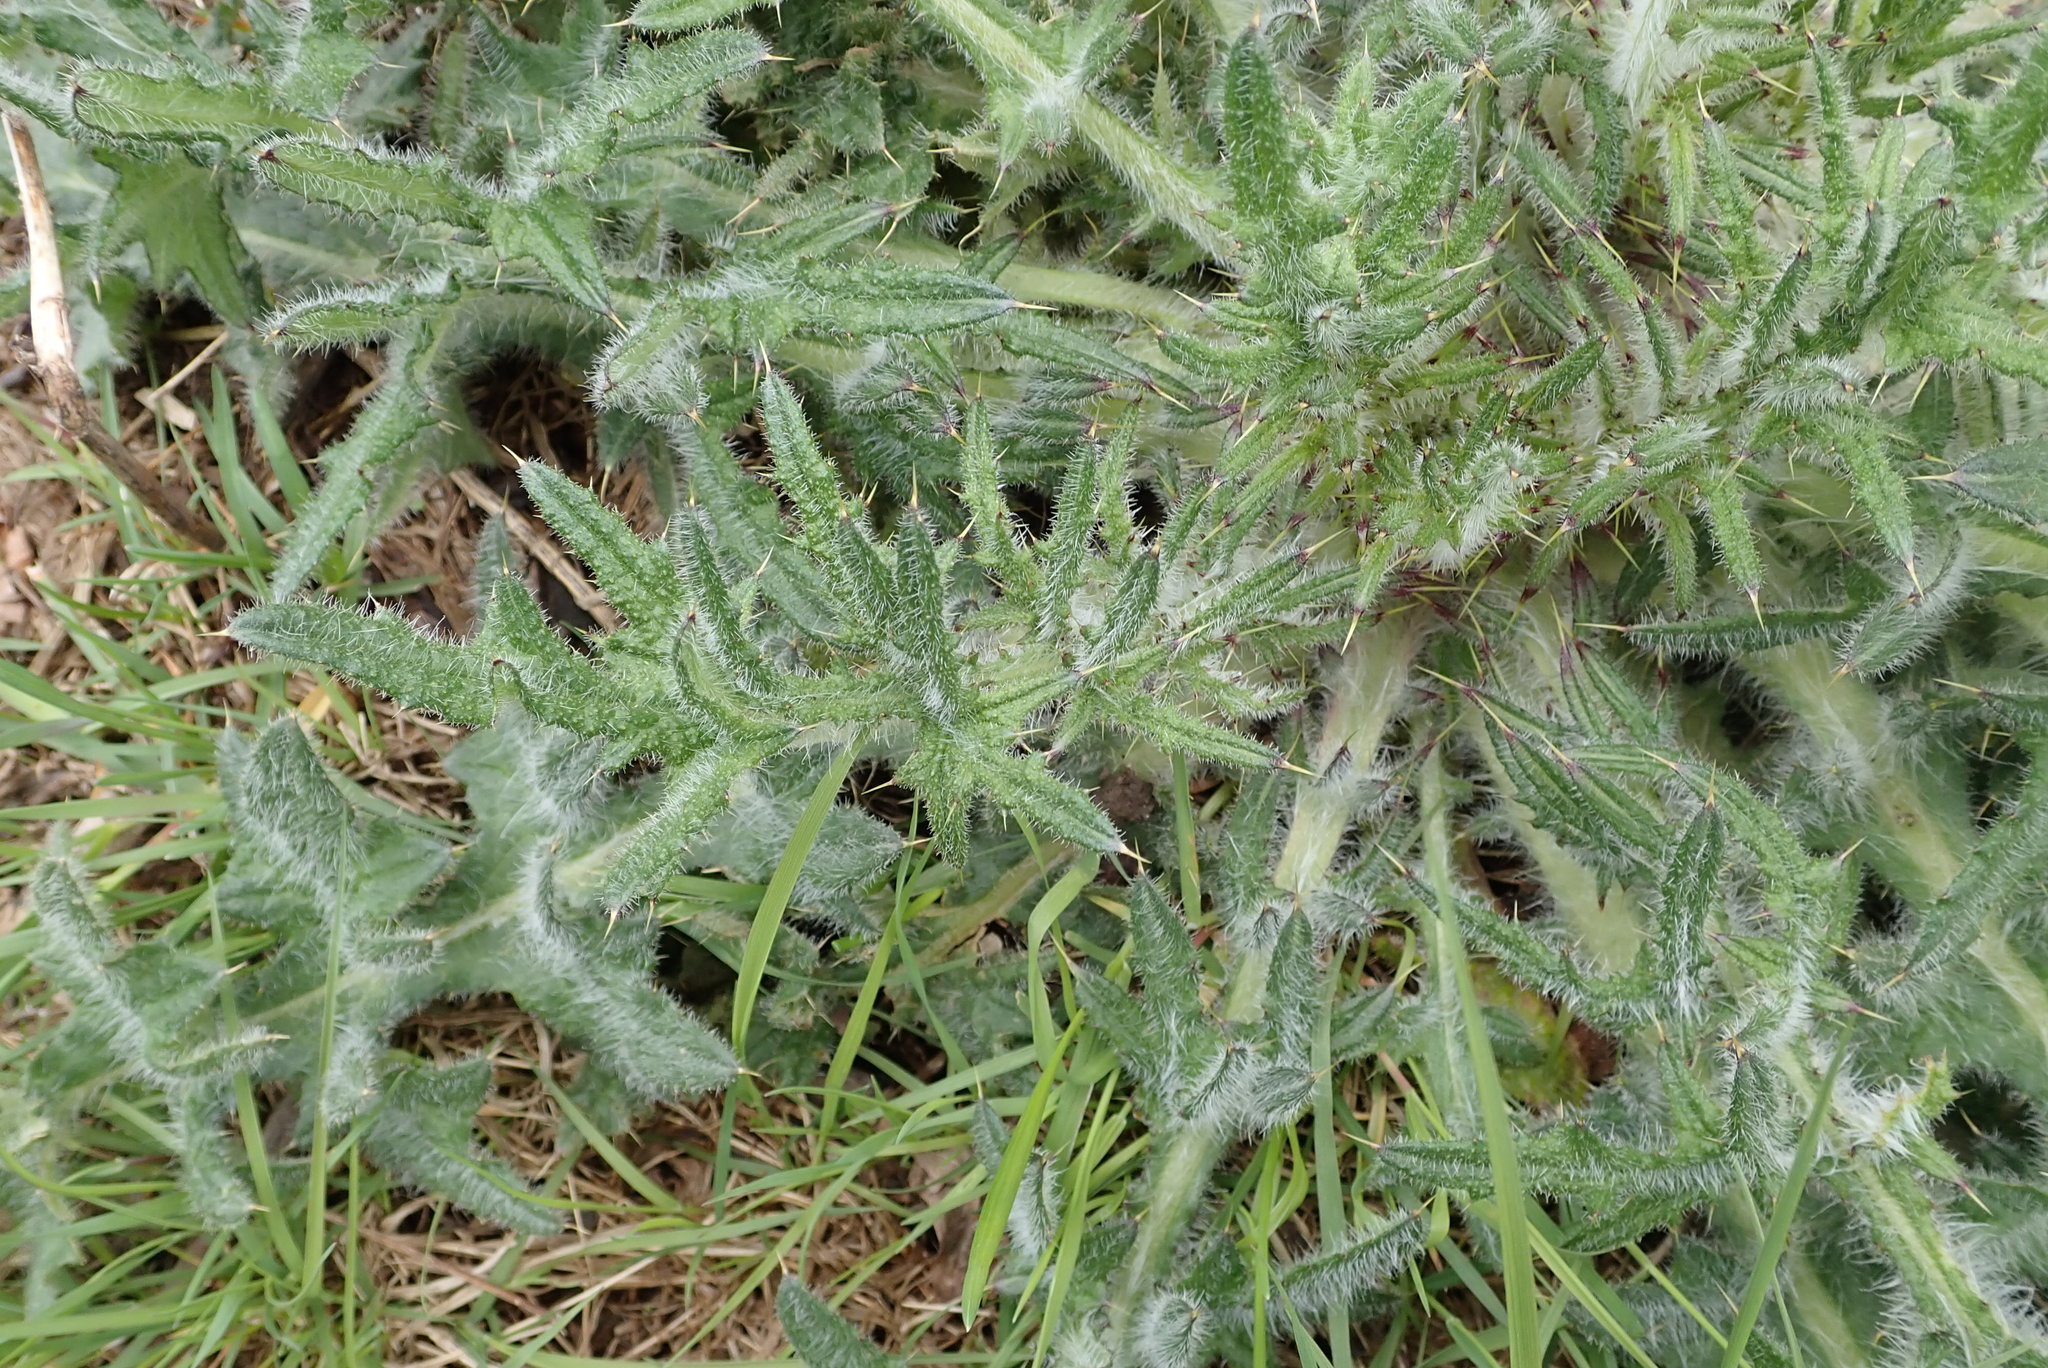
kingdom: Plantae
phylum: Tracheophyta
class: Magnoliopsida
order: Asterales
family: Asteraceae
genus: Cirsium
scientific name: Cirsium vulgare
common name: Bull thistle
